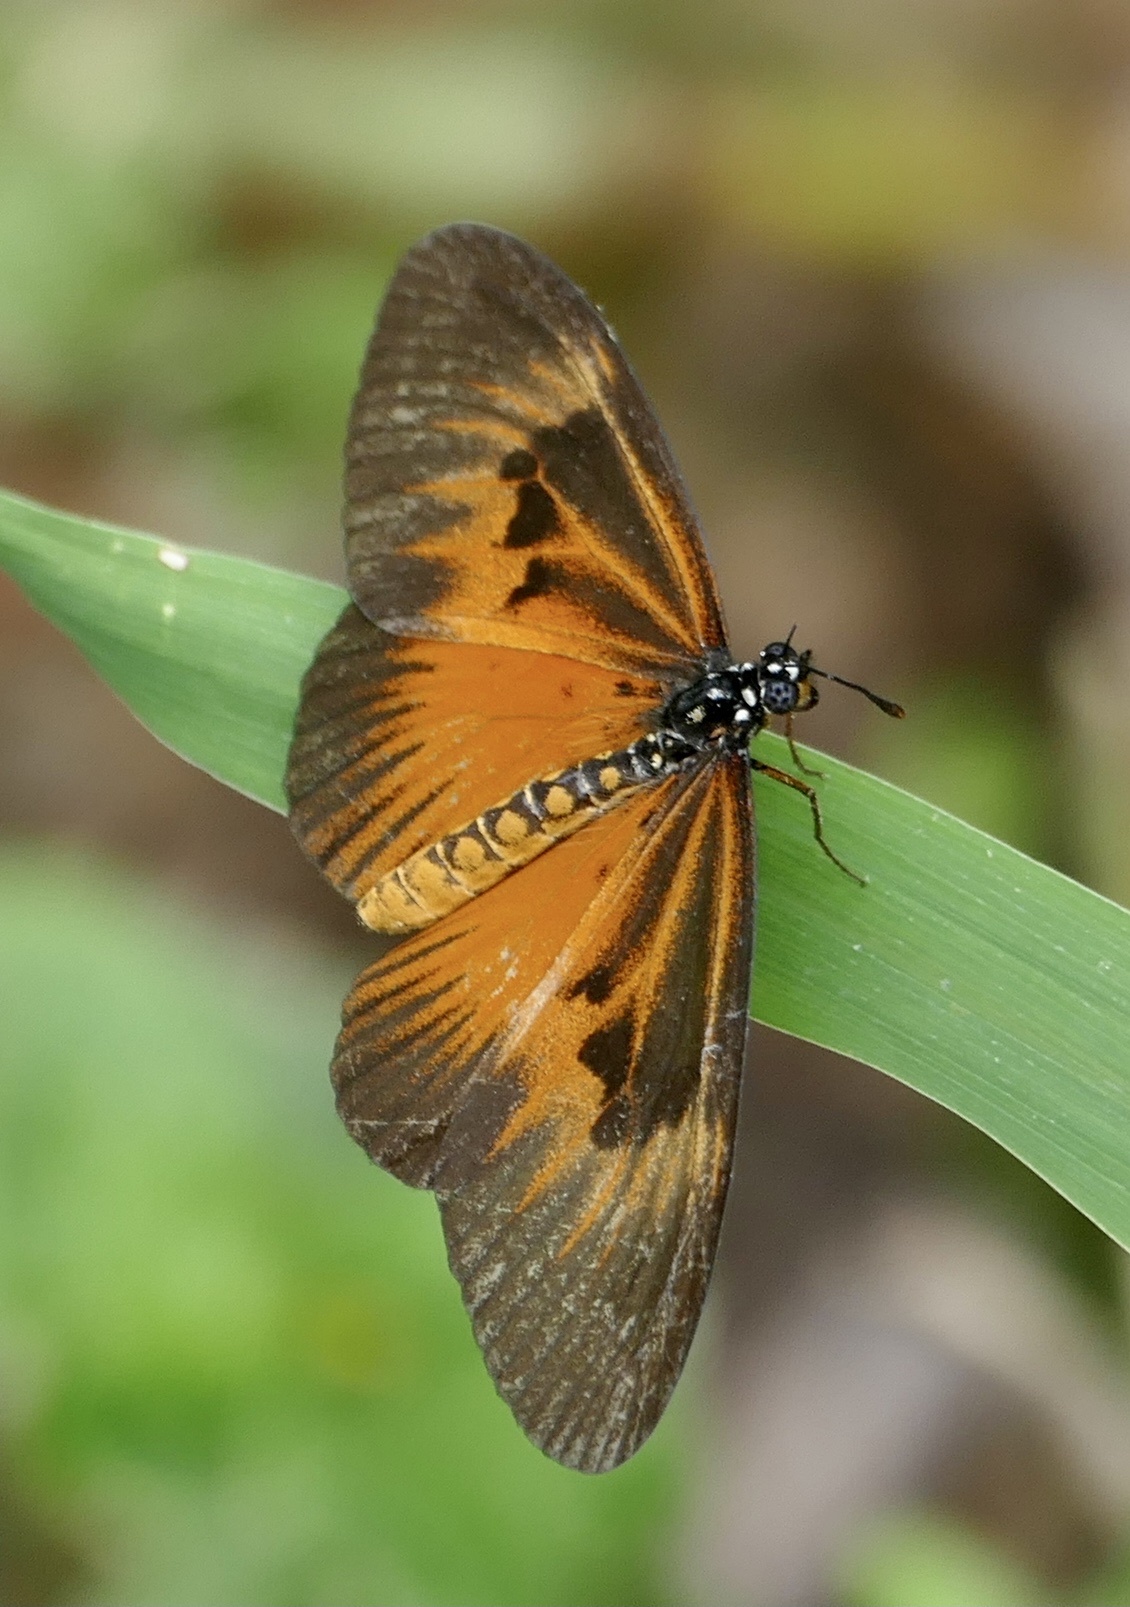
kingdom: Animalia
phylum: Arthropoda
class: Insecta
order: Lepidoptera
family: Nymphalidae
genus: Acraea
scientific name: Acraea Telchinia alciope
